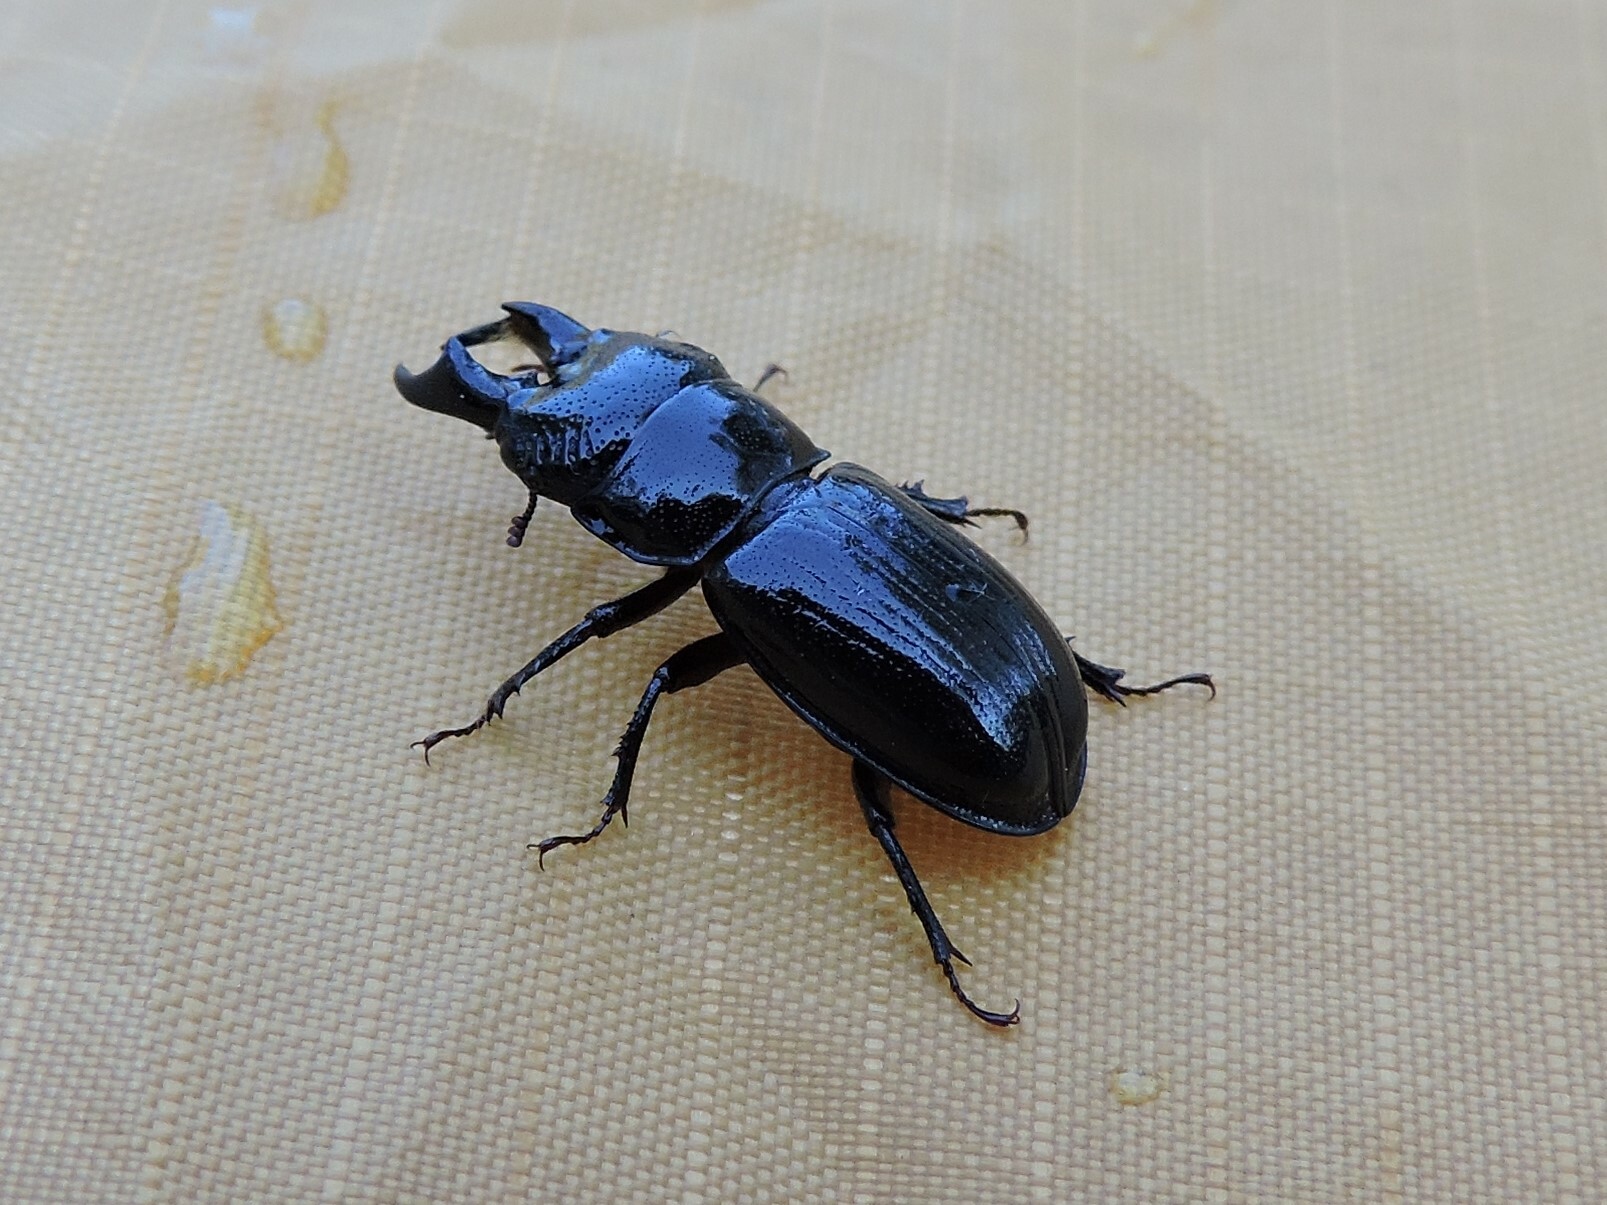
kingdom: Animalia
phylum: Arthropoda
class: Insecta
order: Coleoptera
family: Lucanidae
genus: Ceruchus
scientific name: Ceruchus chrysomelinus
